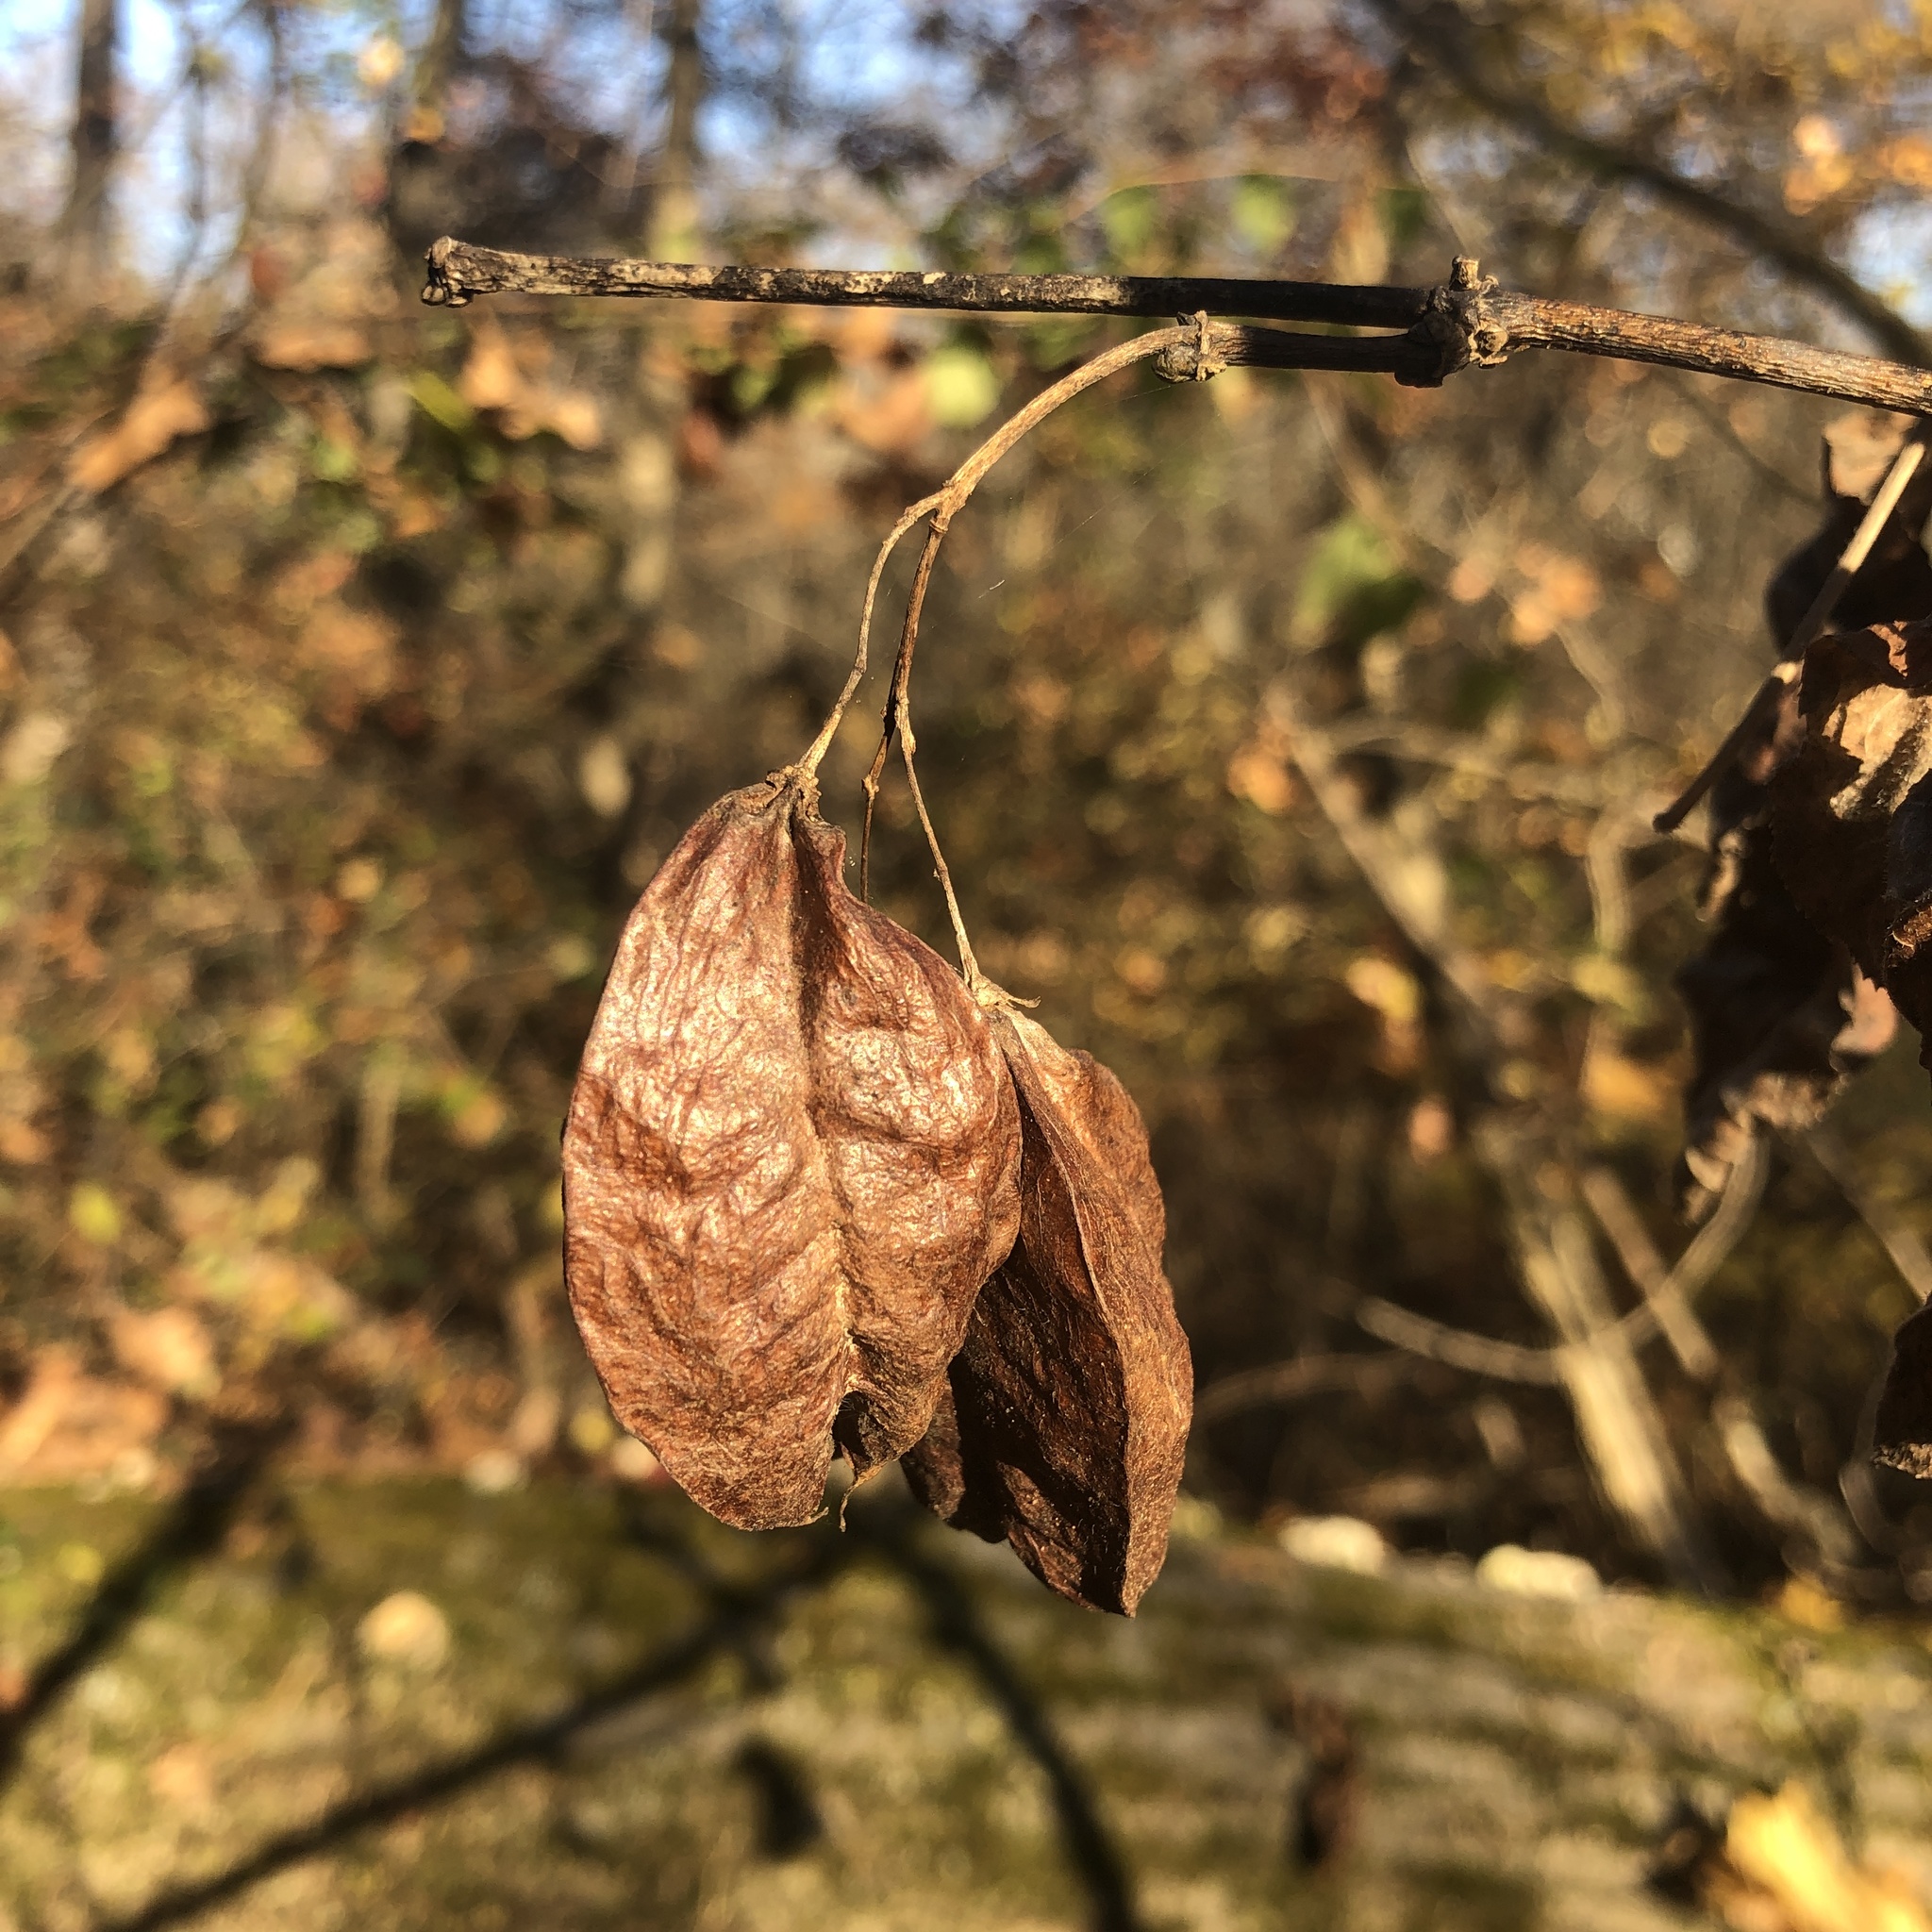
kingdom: Plantae
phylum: Tracheophyta
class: Magnoliopsida
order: Crossosomatales
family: Staphyleaceae
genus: Staphylea
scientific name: Staphylea trifolia
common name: American bladdernut
